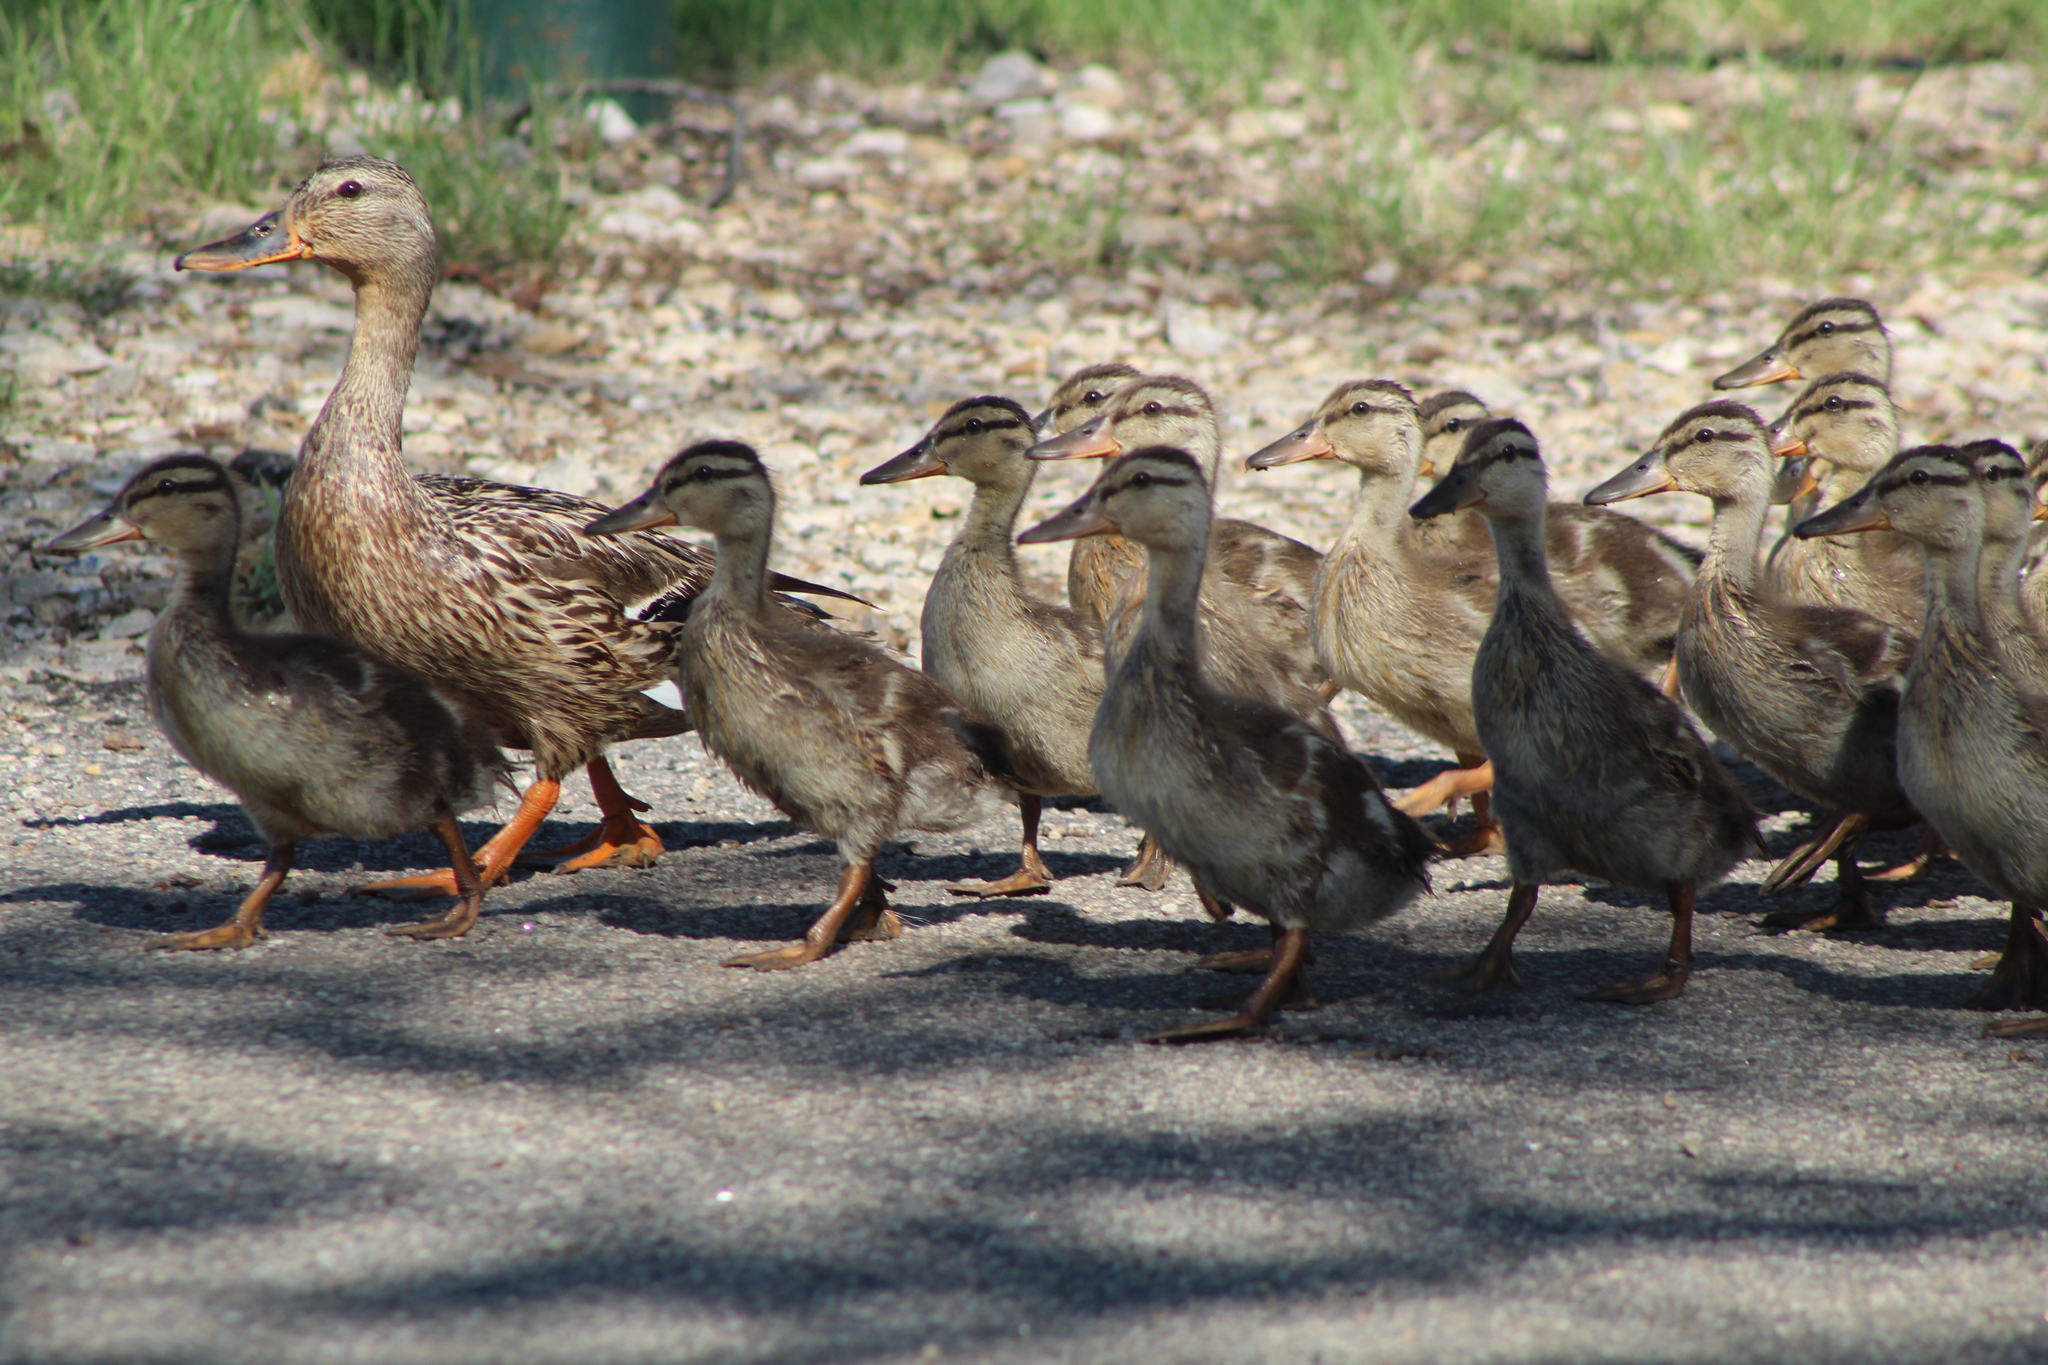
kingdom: Animalia
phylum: Chordata
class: Aves
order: Anseriformes
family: Anatidae
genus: Anas
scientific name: Anas platyrhynchos
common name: Mallard
